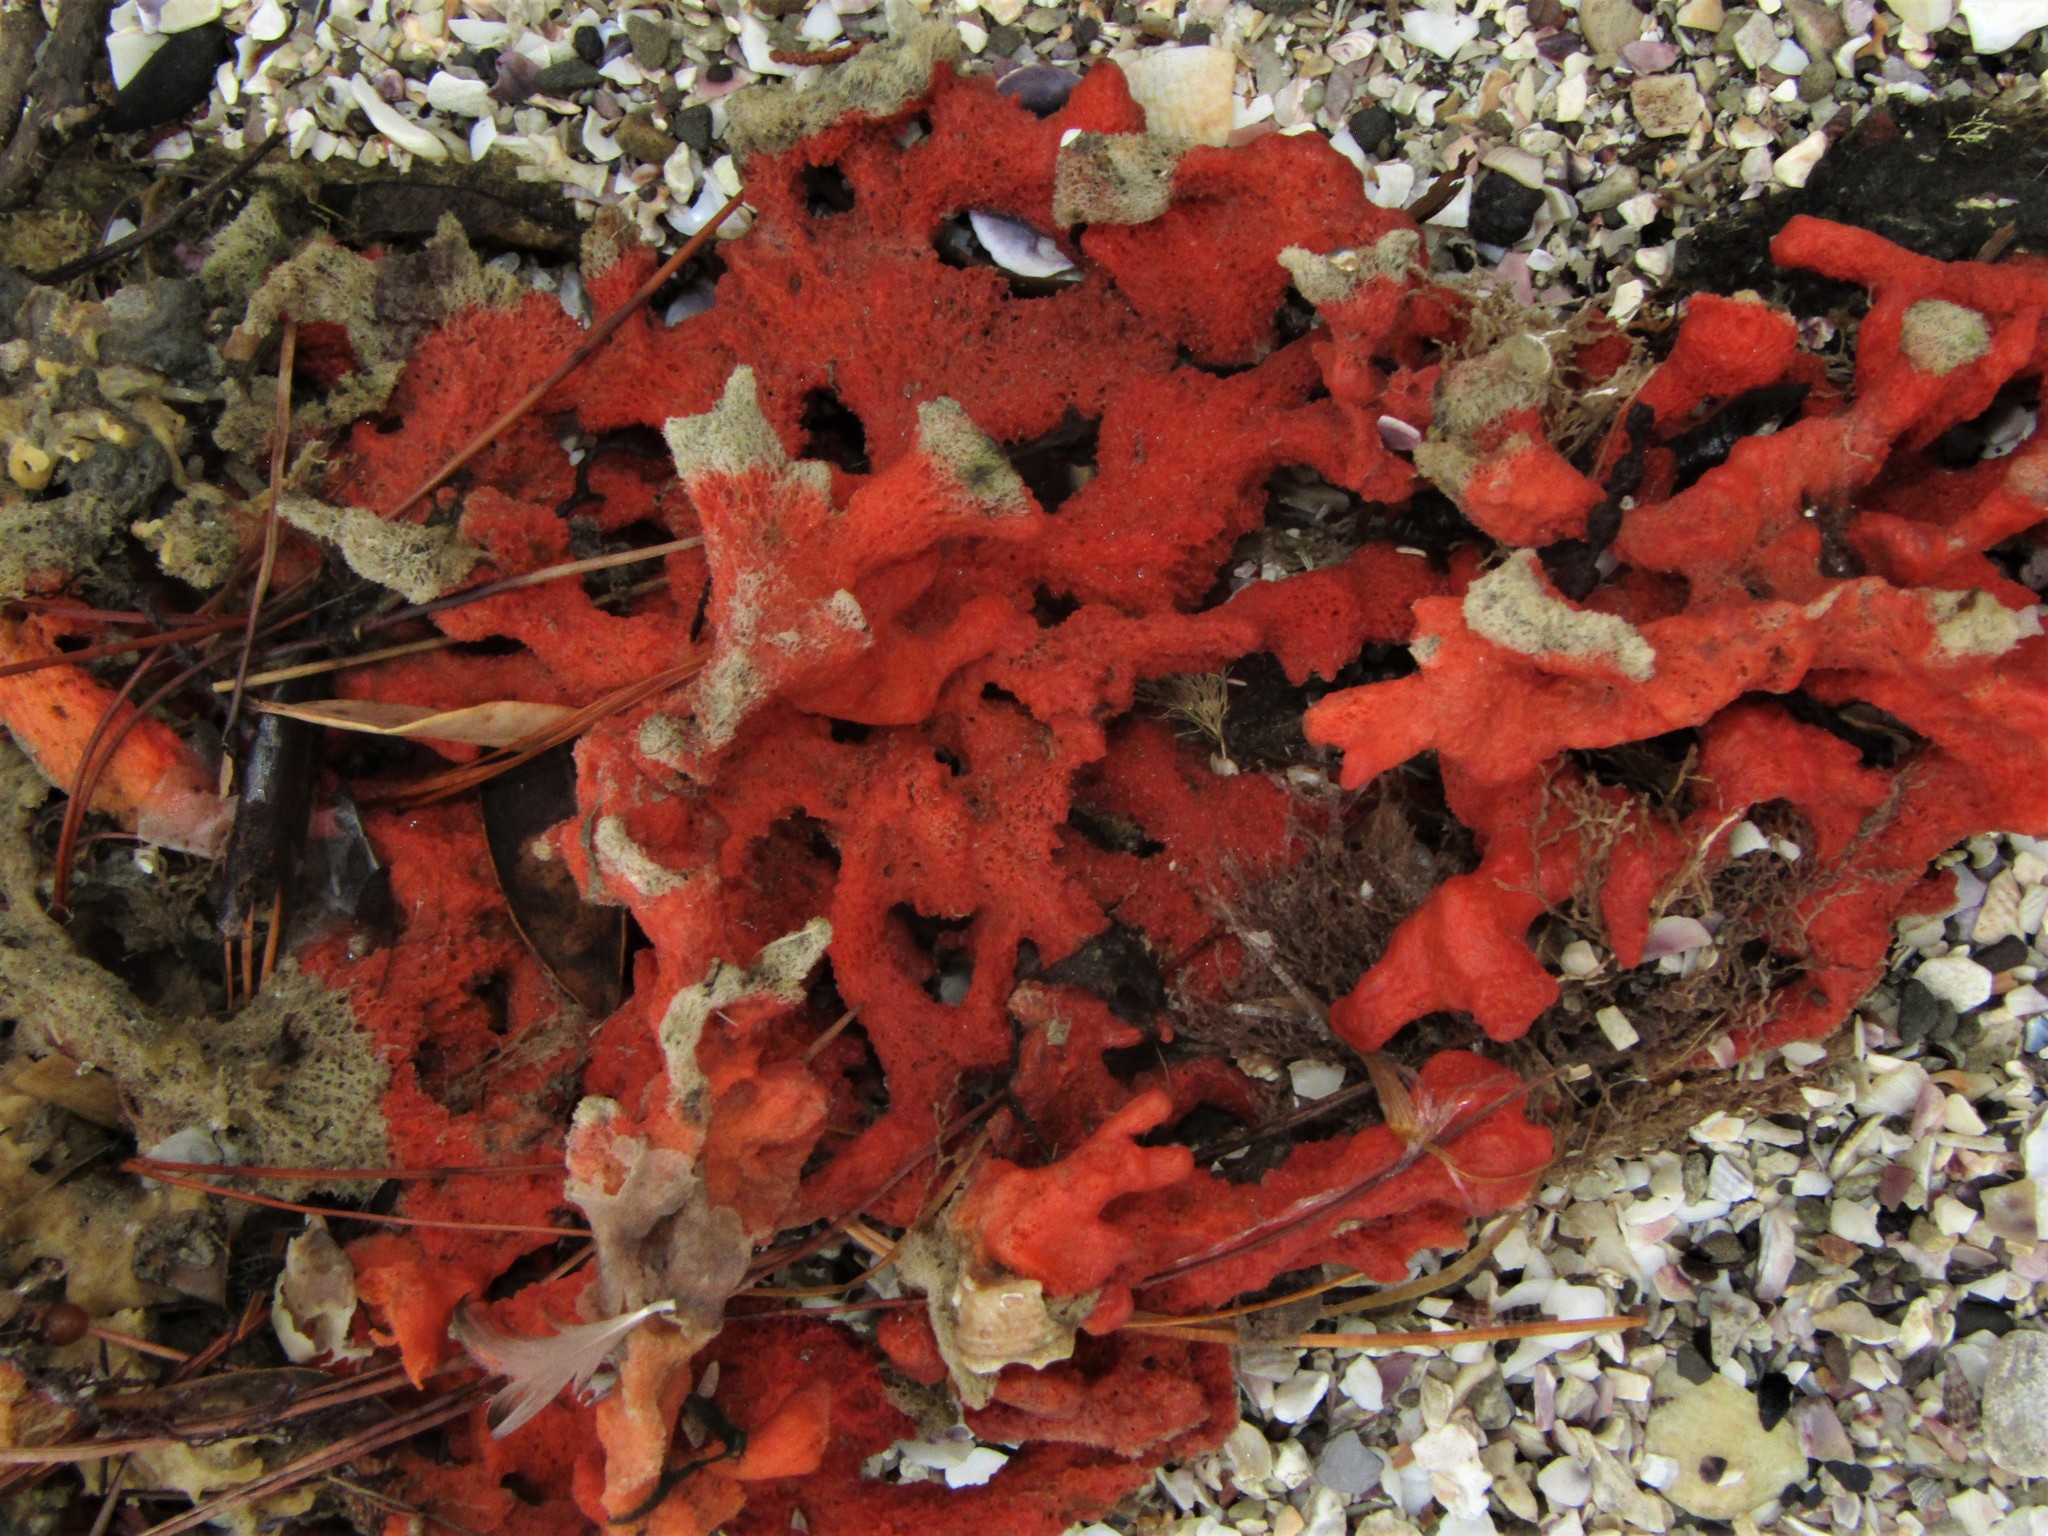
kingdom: Animalia
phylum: Porifera
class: Demospongiae
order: Poecilosclerida
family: Crellidae
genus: Crella
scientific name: Crella incrustans
